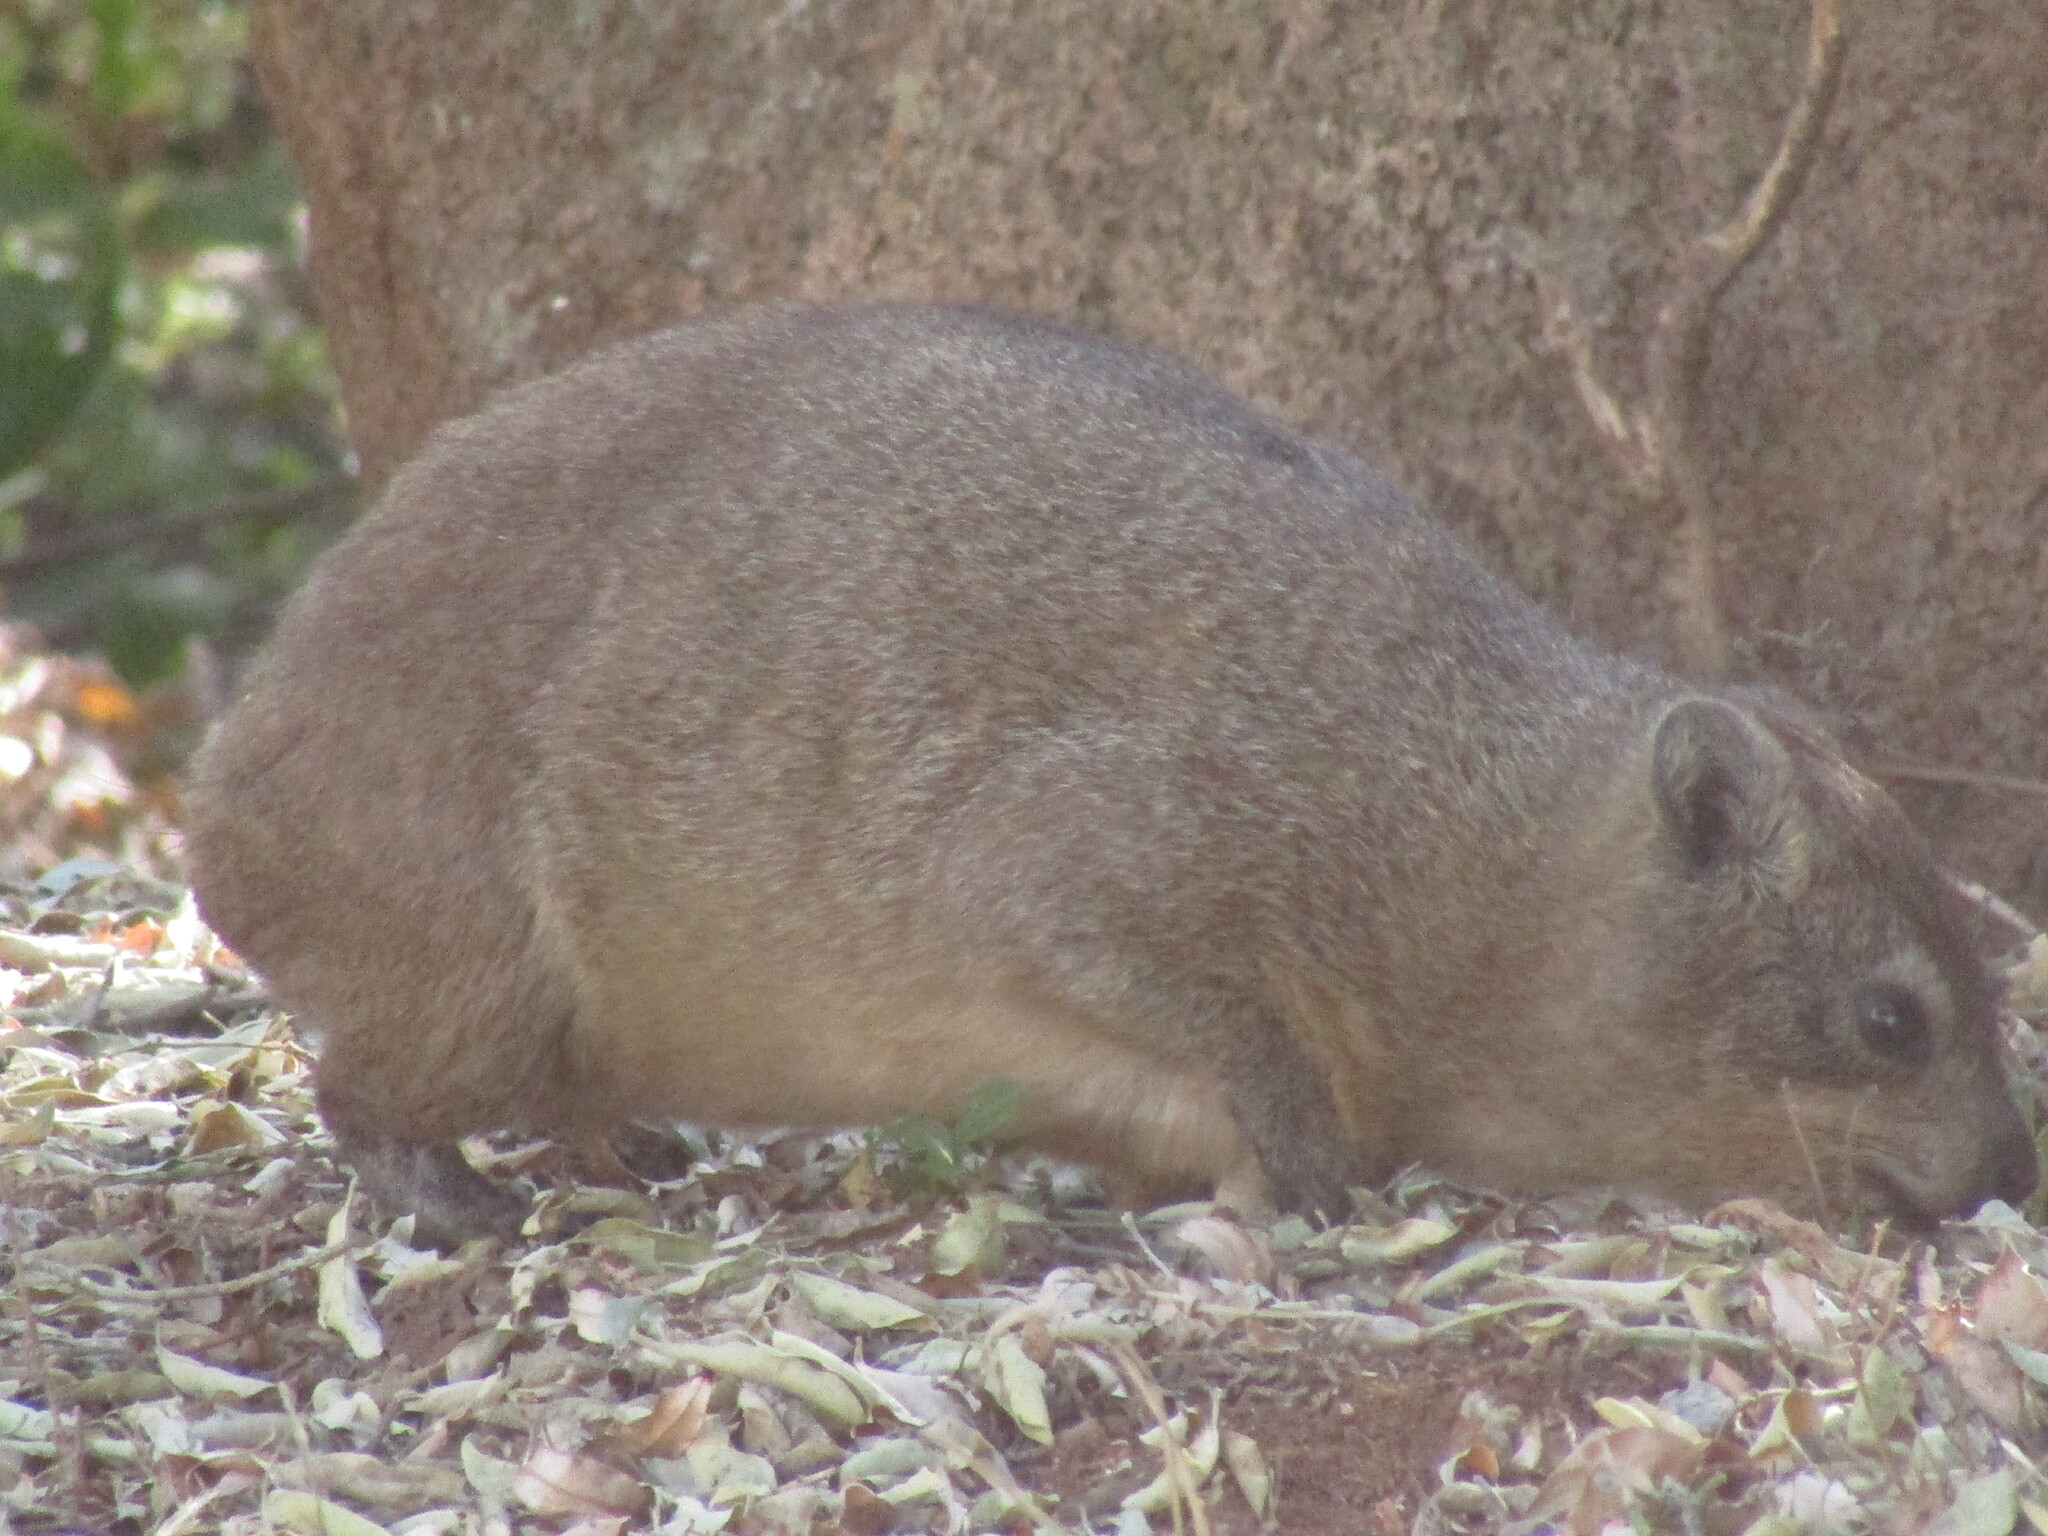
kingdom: Animalia
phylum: Chordata
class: Mammalia
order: Hyracoidea
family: Procaviidae
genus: Procavia
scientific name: Procavia capensis
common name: Rock hyrax
